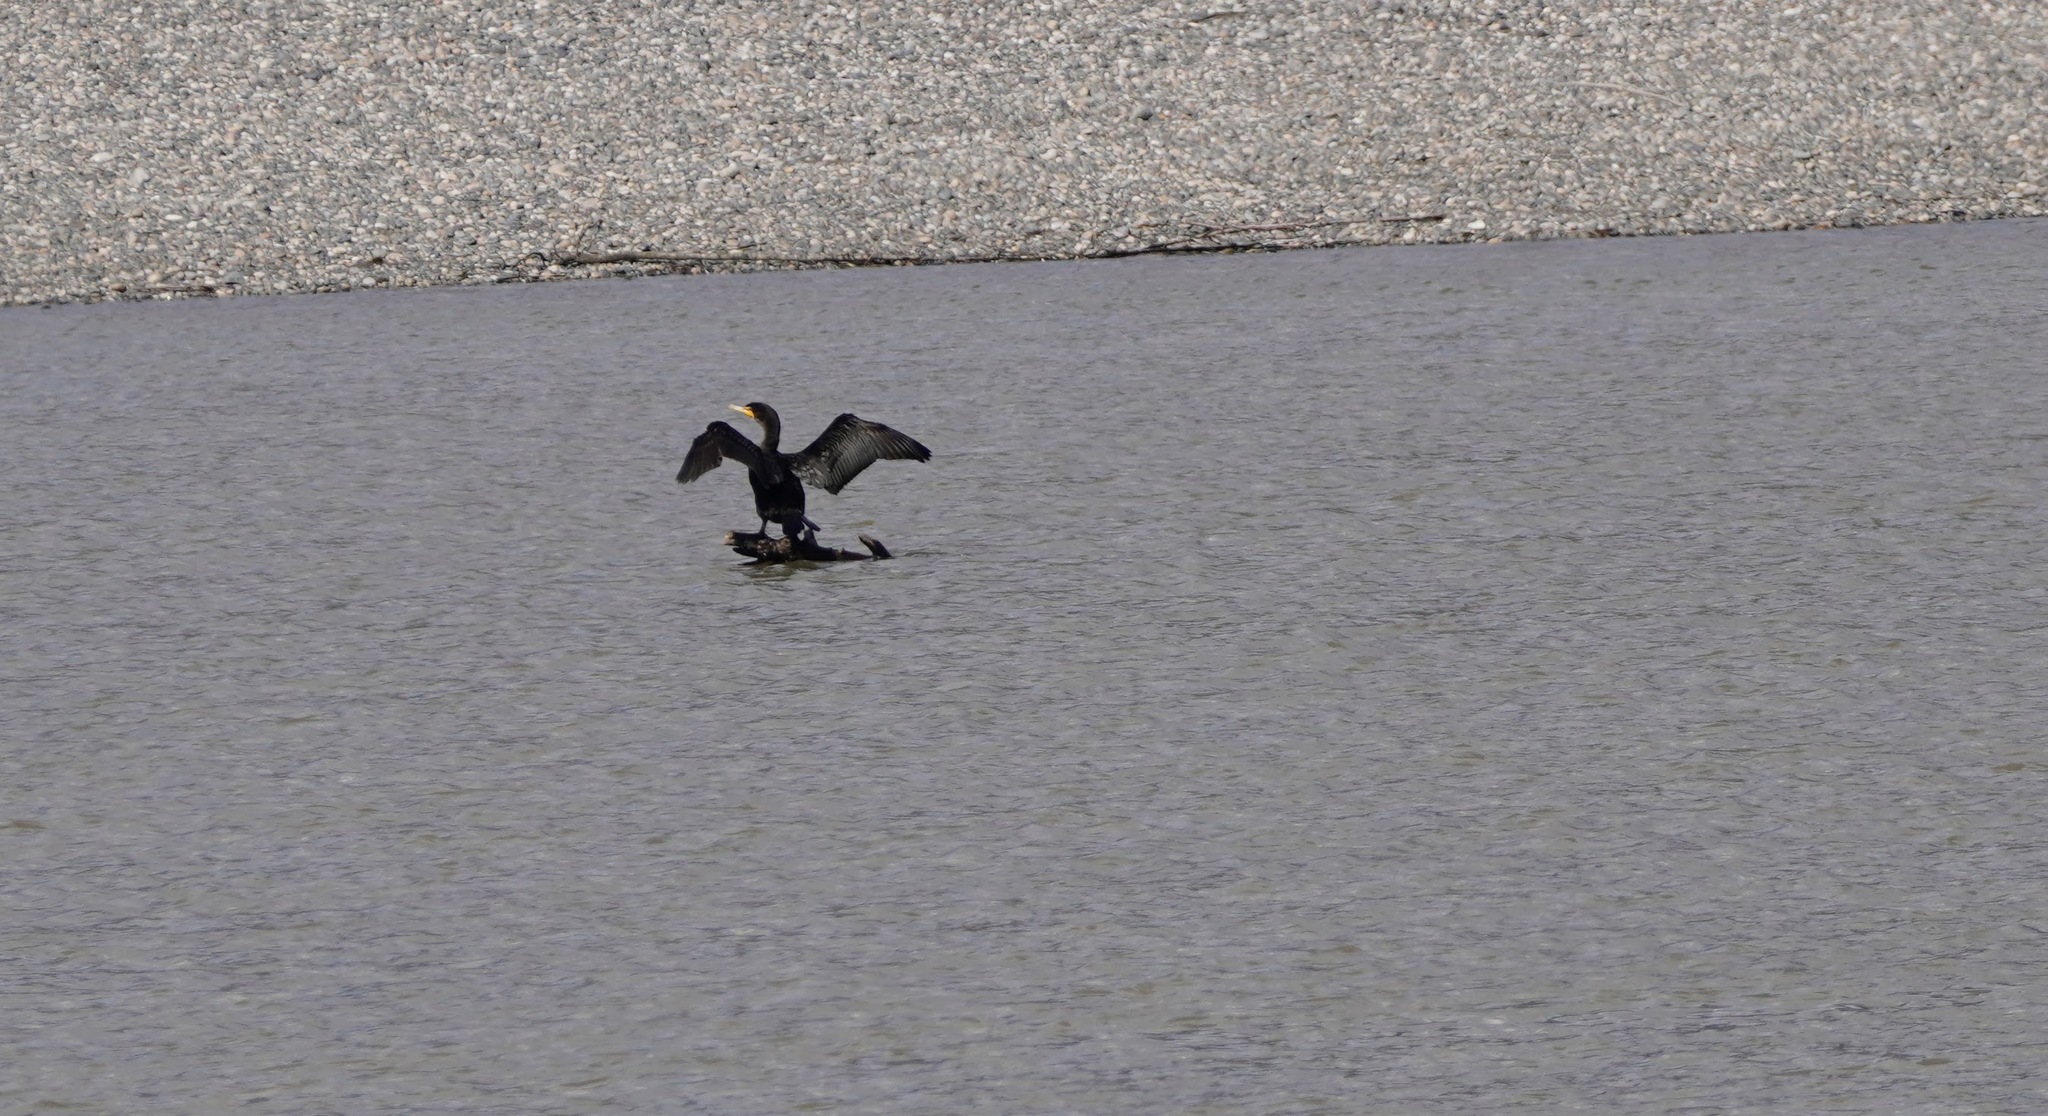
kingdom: Animalia
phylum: Chordata
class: Aves
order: Suliformes
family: Phalacrocoracidae
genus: Phalacrocorax
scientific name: Phalacrocorax auritus
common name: Double-crested cormorant
